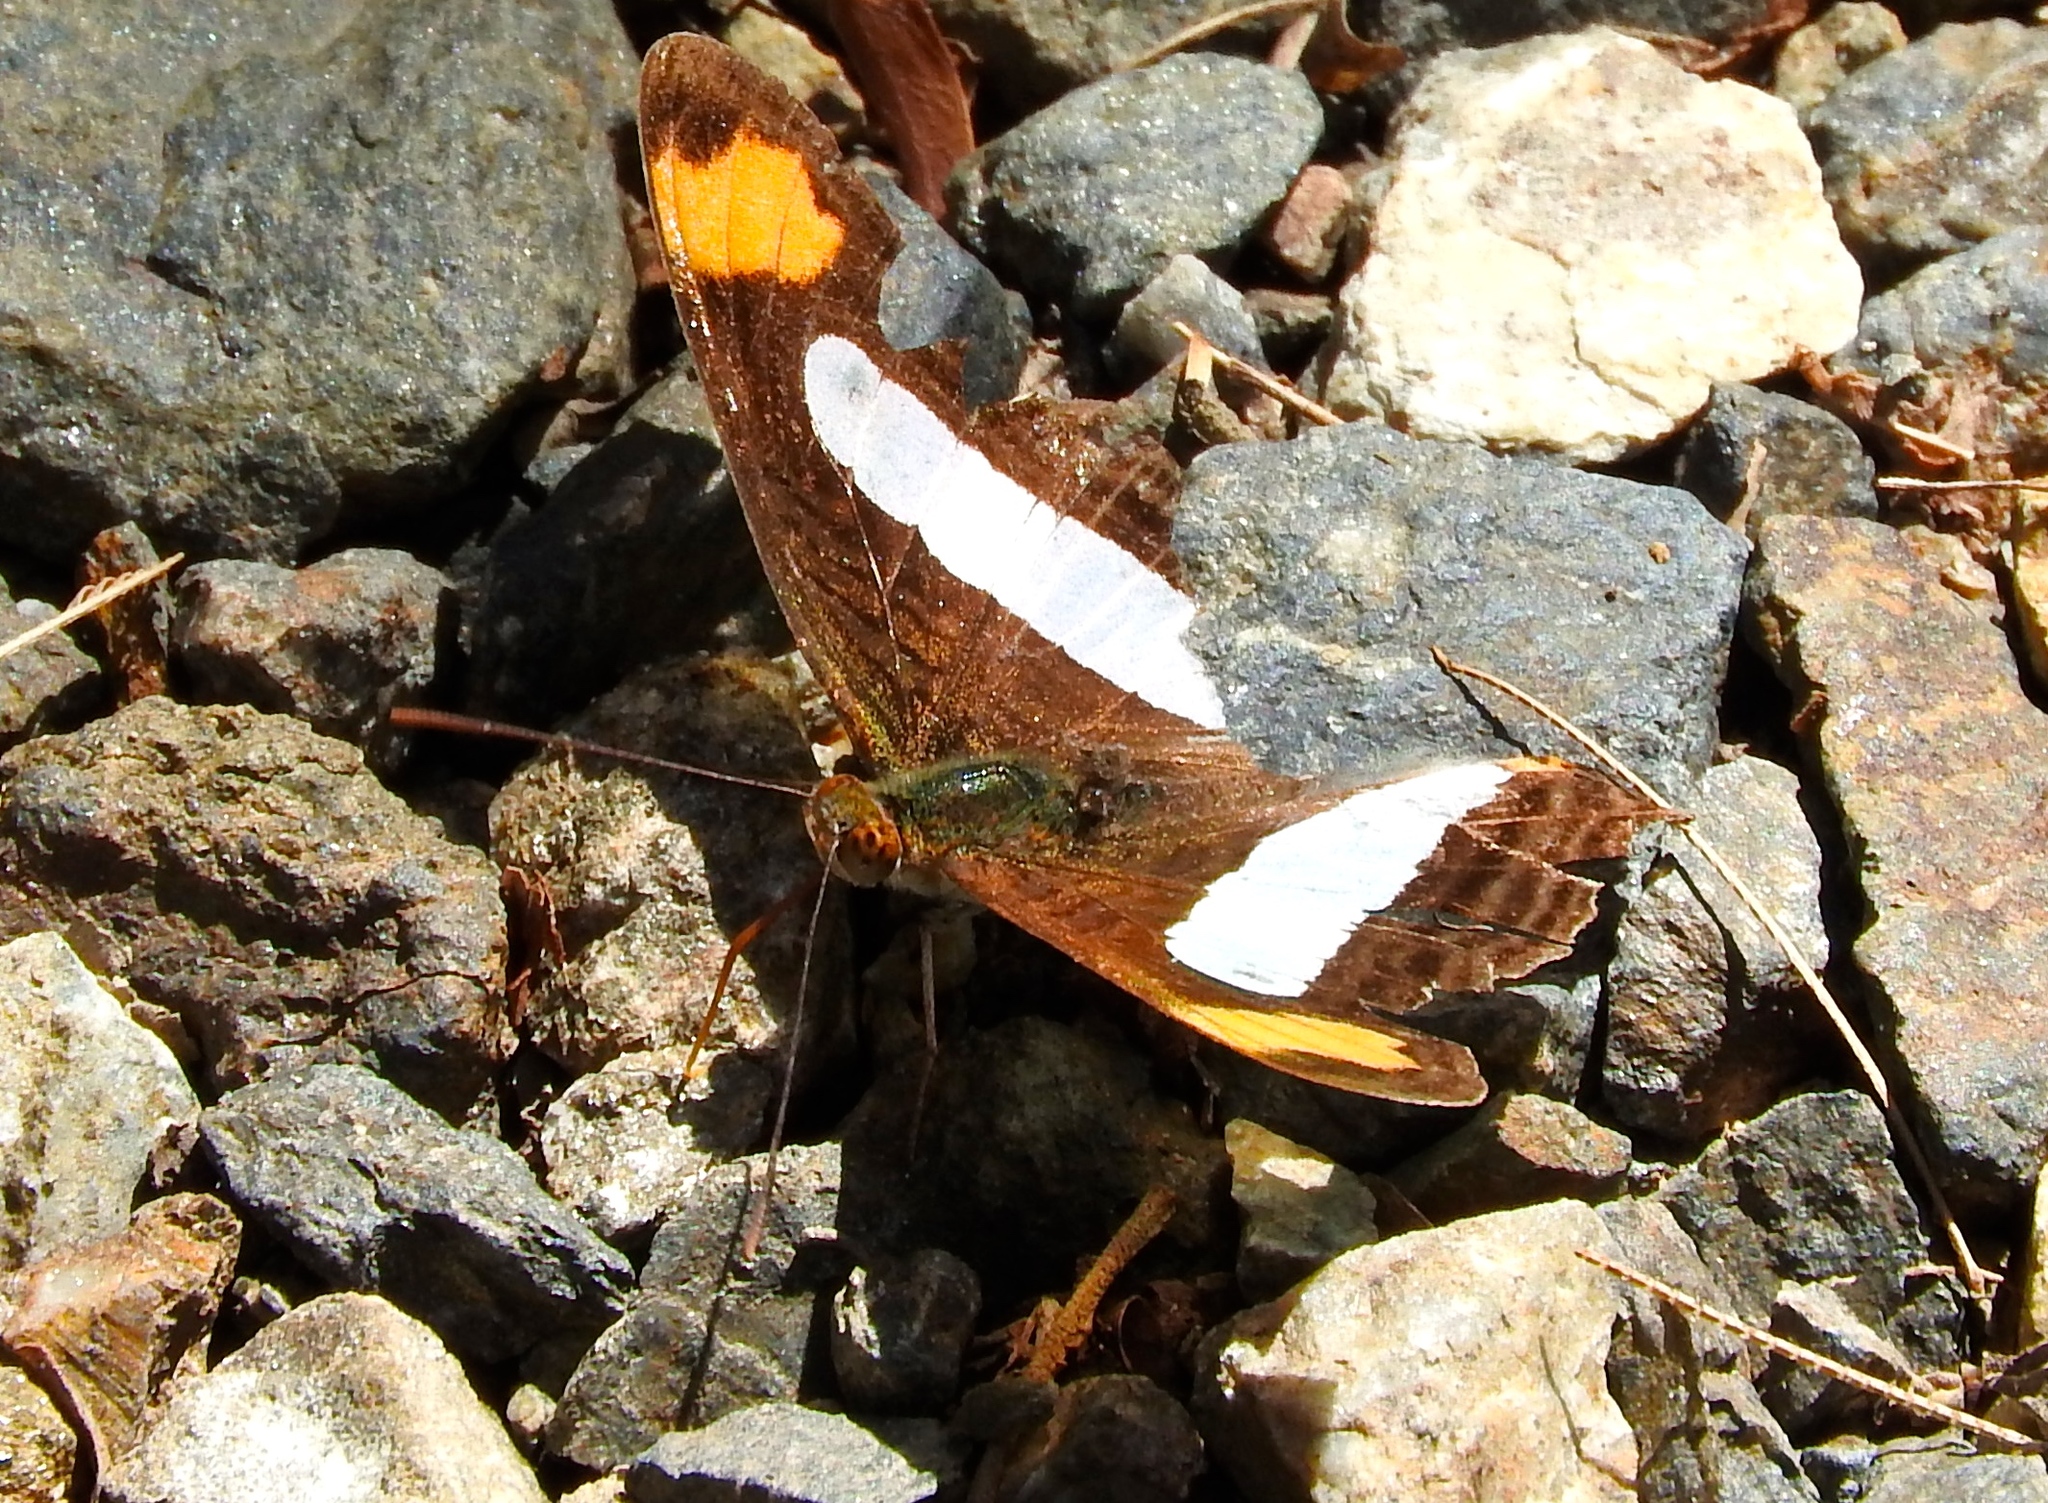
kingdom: Animalia
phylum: Arthropoda
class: Insecta
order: Lepidoptera
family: Nymphalidae
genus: Limenitis
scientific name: Limenitis iphiclus
